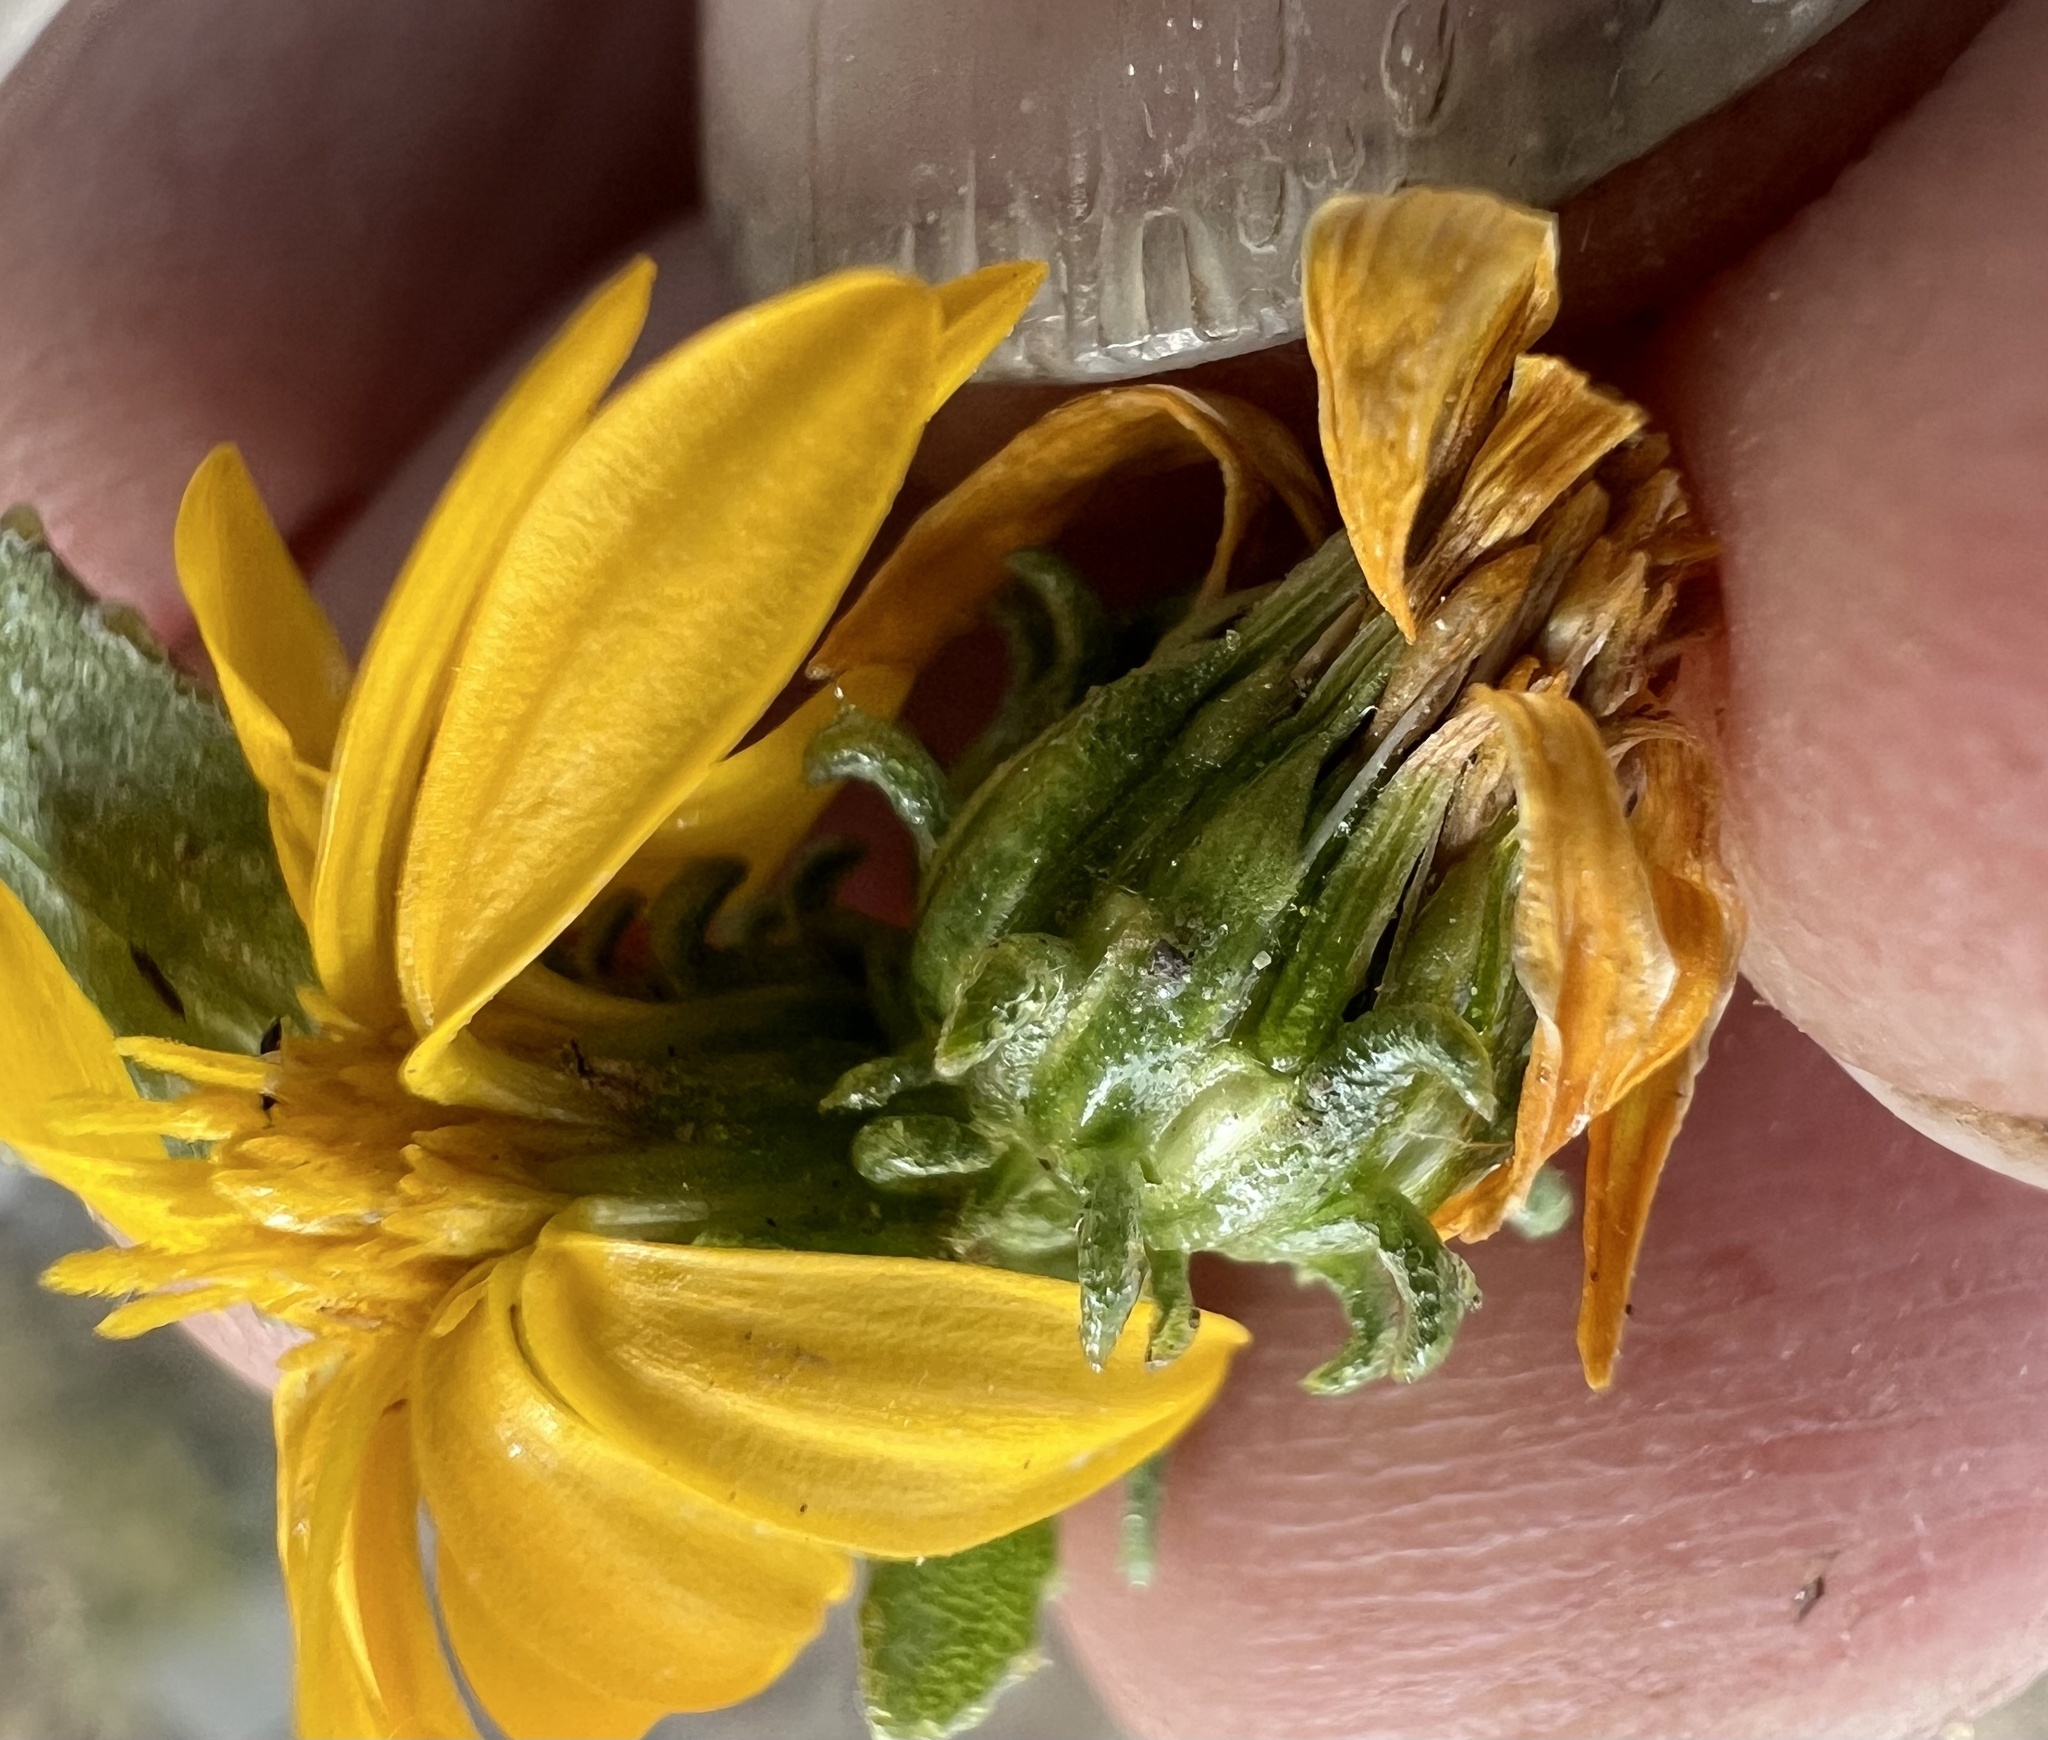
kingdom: Plantae
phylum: Tracheophyta
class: Magnoliopsida
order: Asterales
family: Asteraceae
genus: Grindelia
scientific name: Grindelia squarrosa
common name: Curly-cup gumweed
